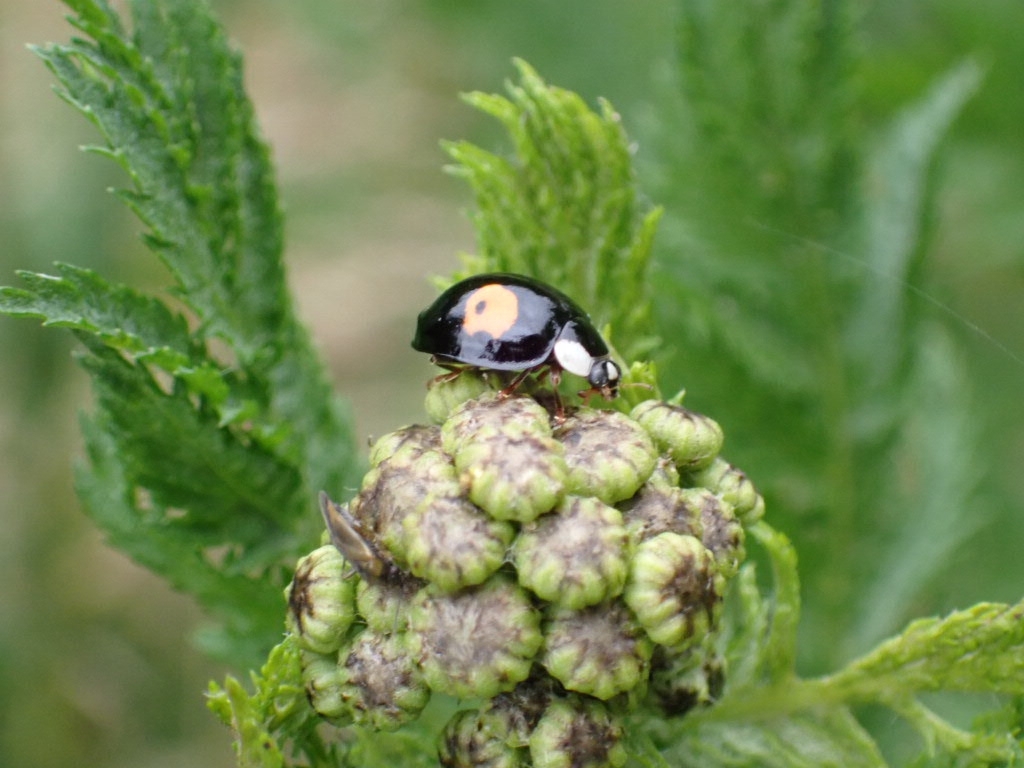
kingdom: Animalia
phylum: Arthropoda
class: Insecta
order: Coleoptera
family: Coccinellidae
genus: Harmonia
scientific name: Harmonia axyridis
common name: Harlequin ladybird
